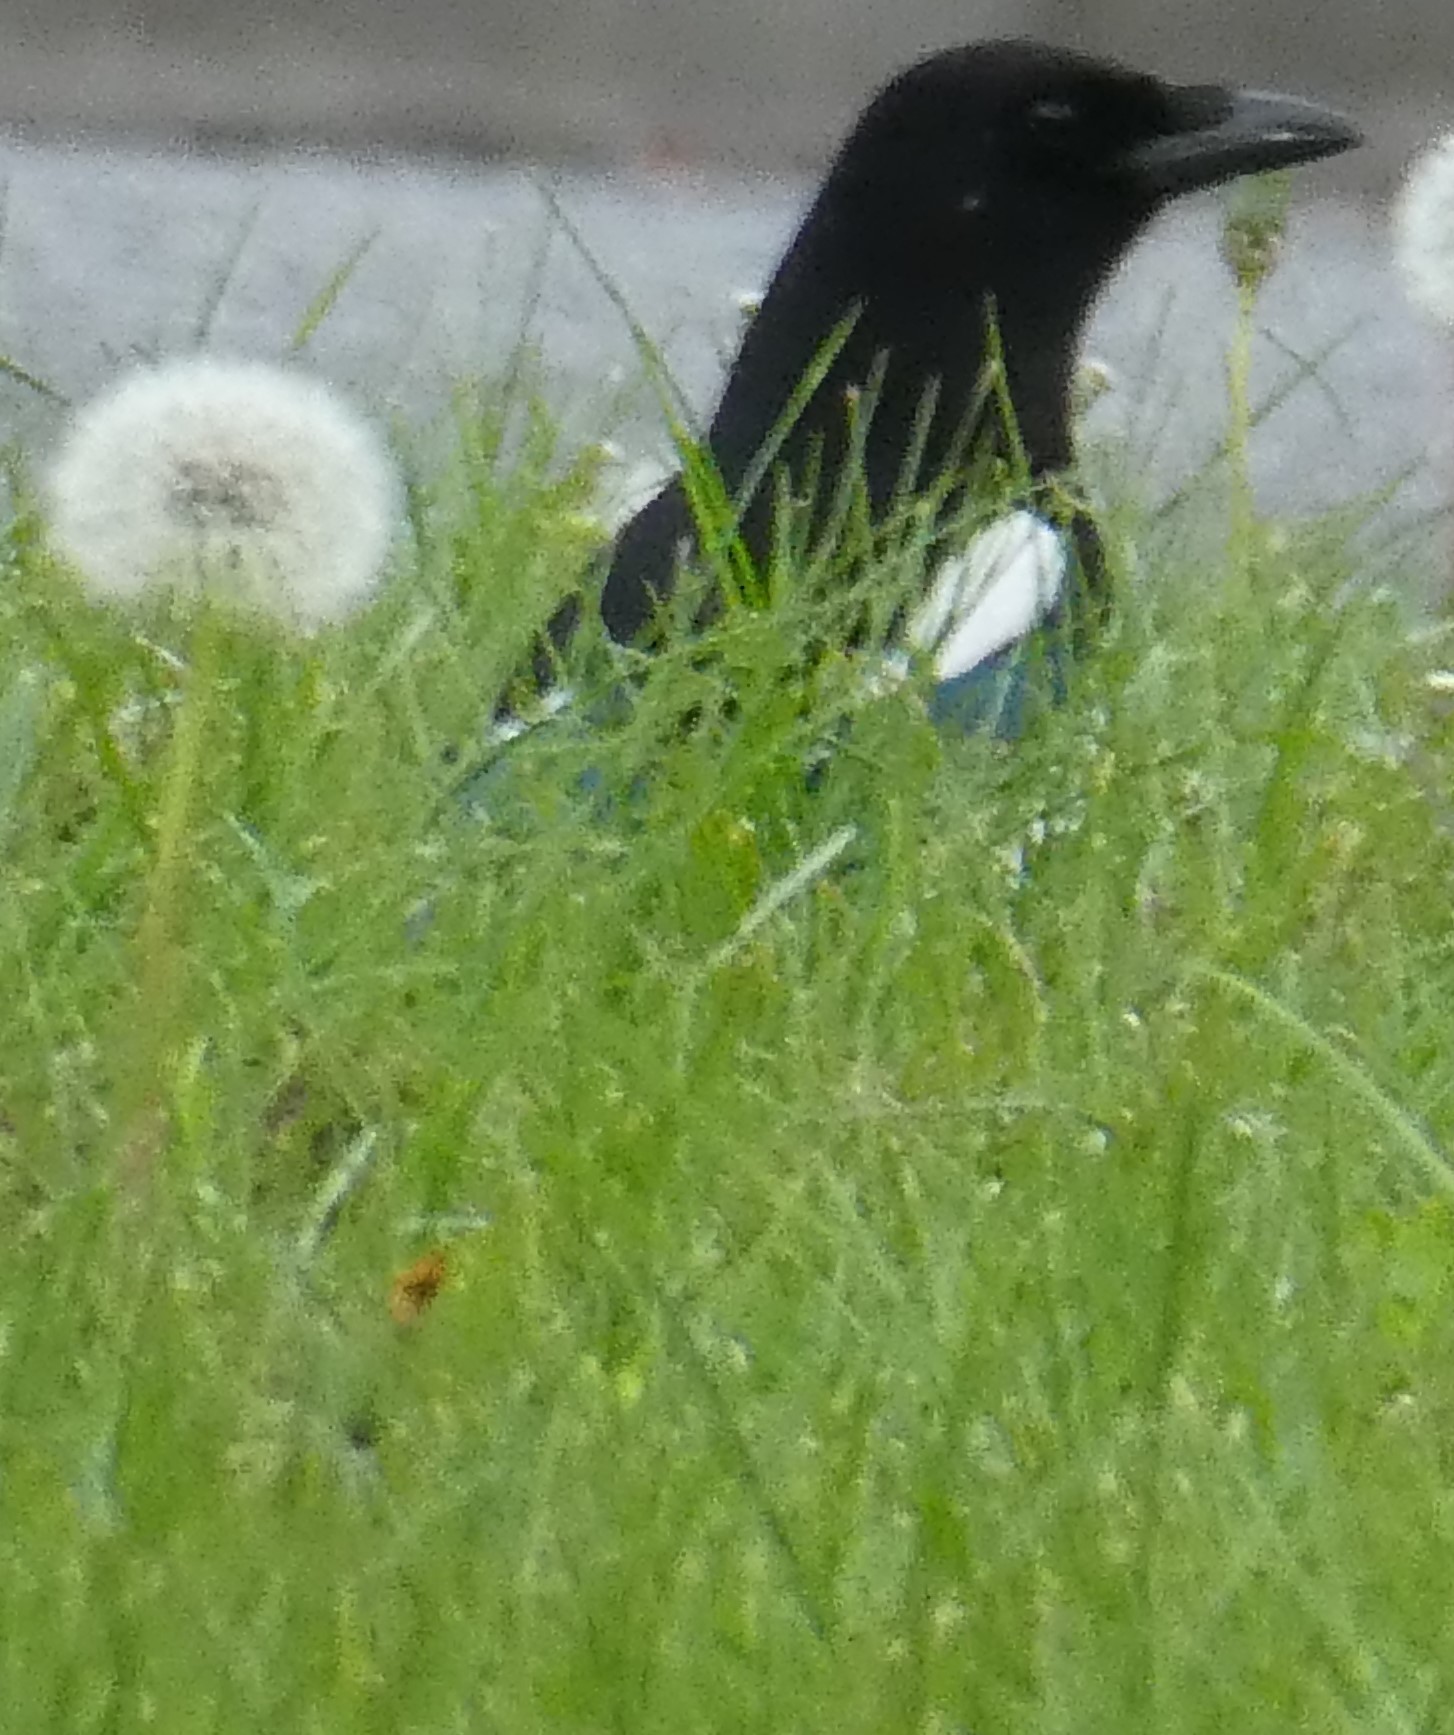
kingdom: Animalia
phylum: Chordata
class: Aves
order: Passeriformes
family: Corvidae
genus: Pica
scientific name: Pica pica
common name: Eurasian magpie
